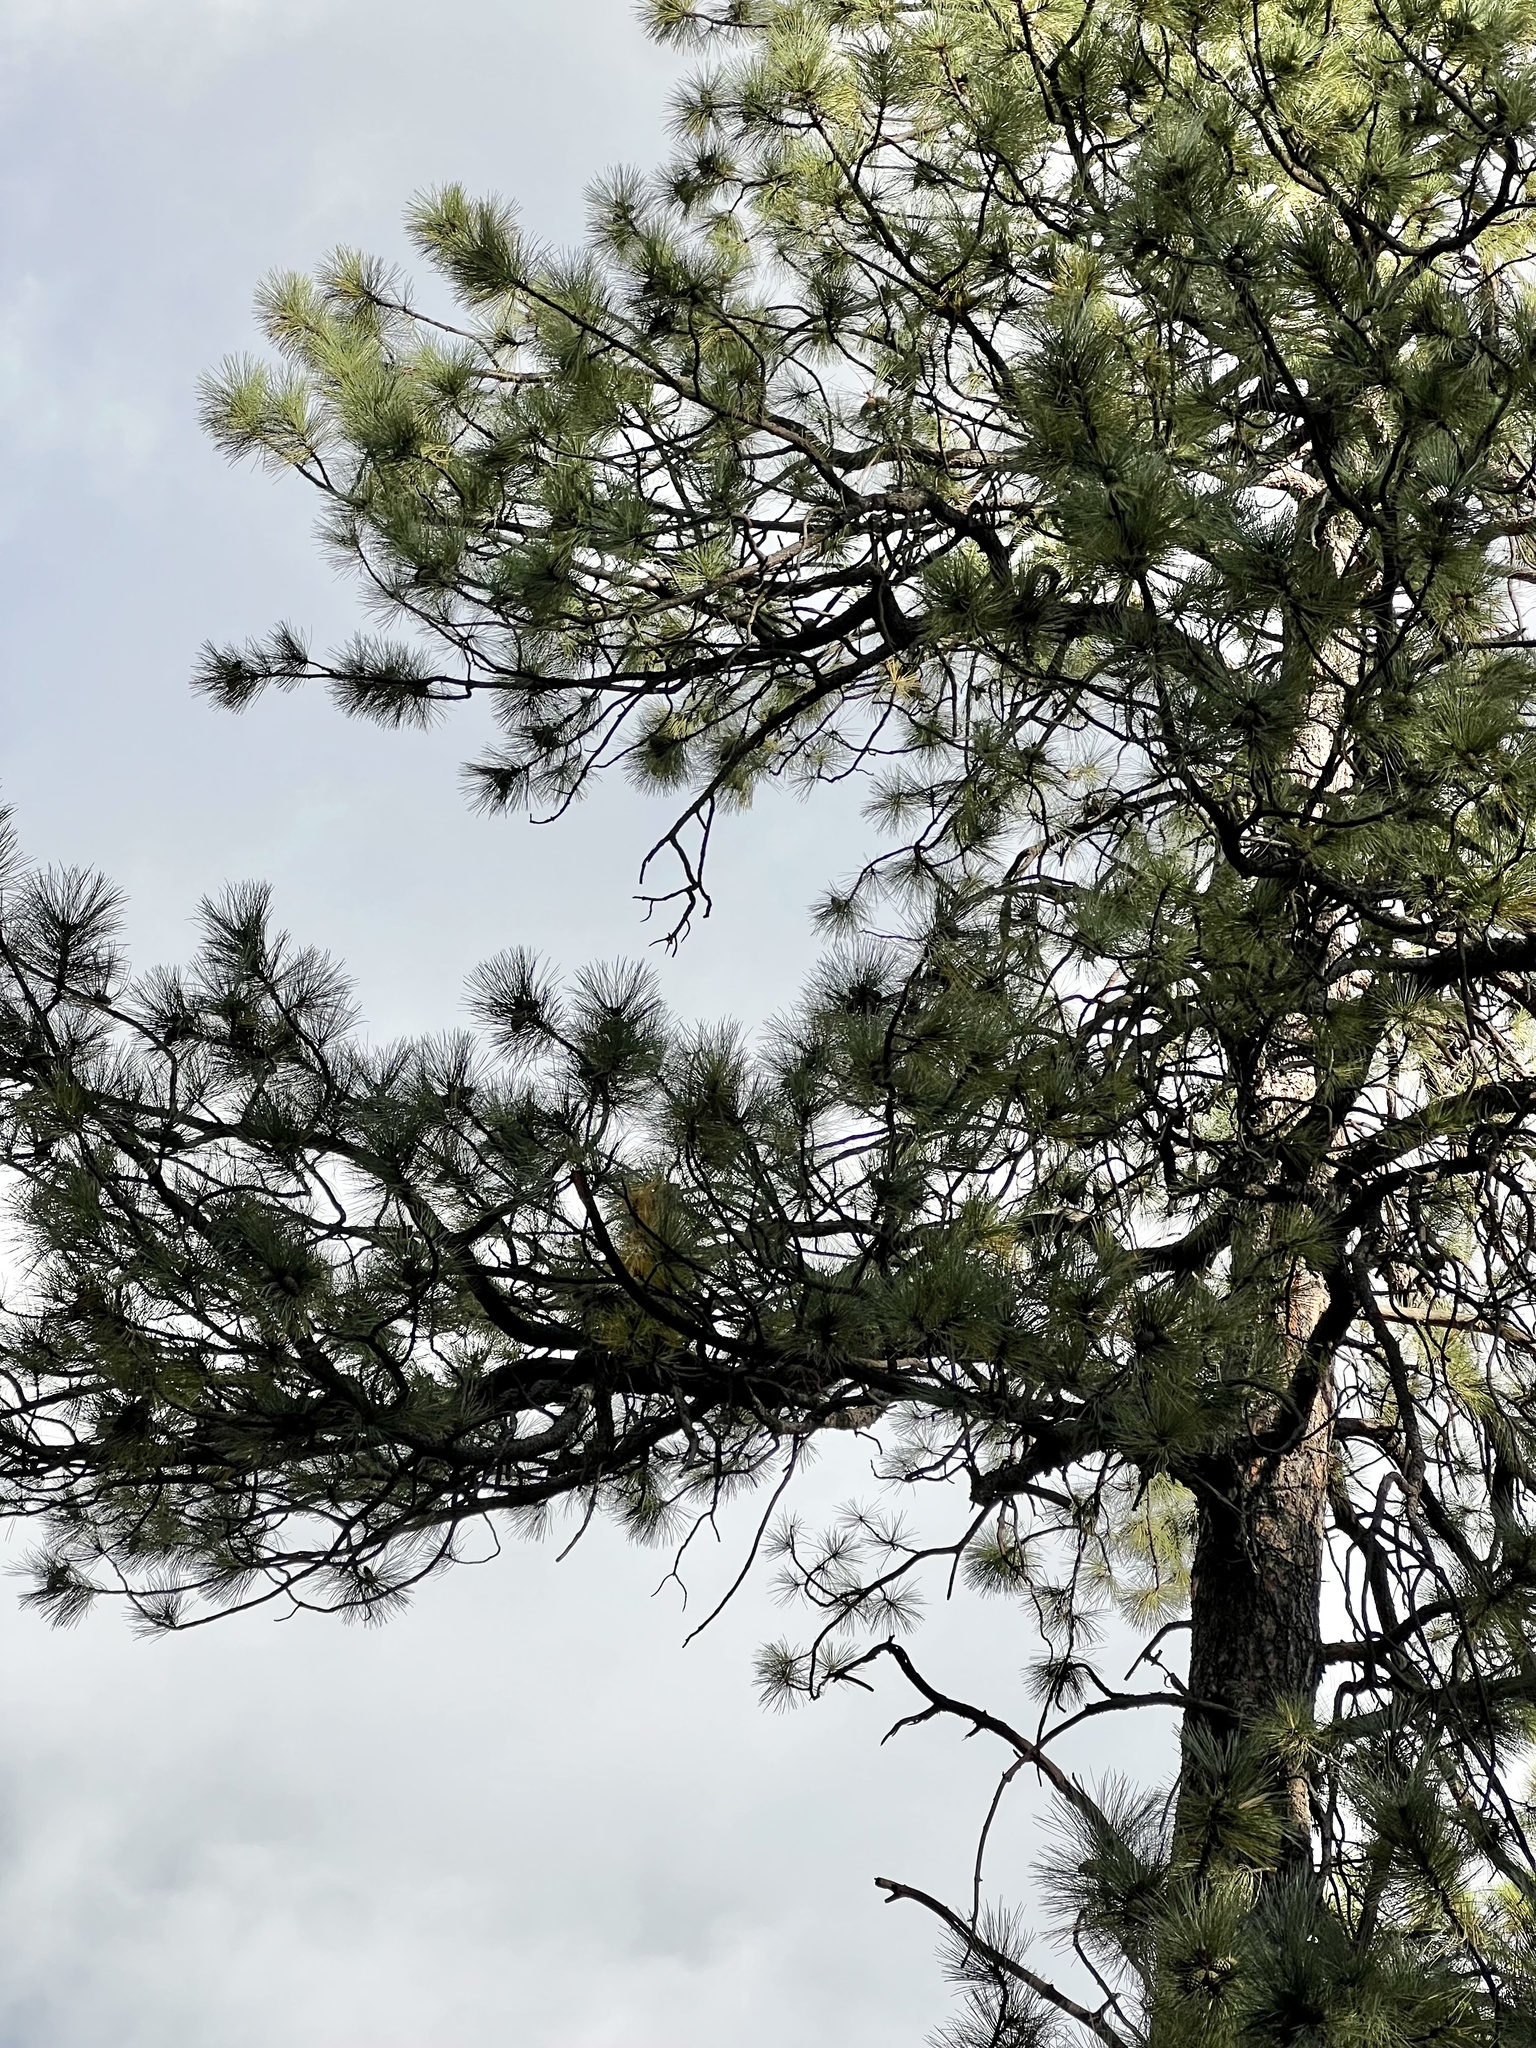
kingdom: Plantae
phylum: Tracheophyta
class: Pinopsida
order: Pinales
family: Pinaceae
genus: Pinus
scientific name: Pinus ponderosa
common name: Western yellow-pine
